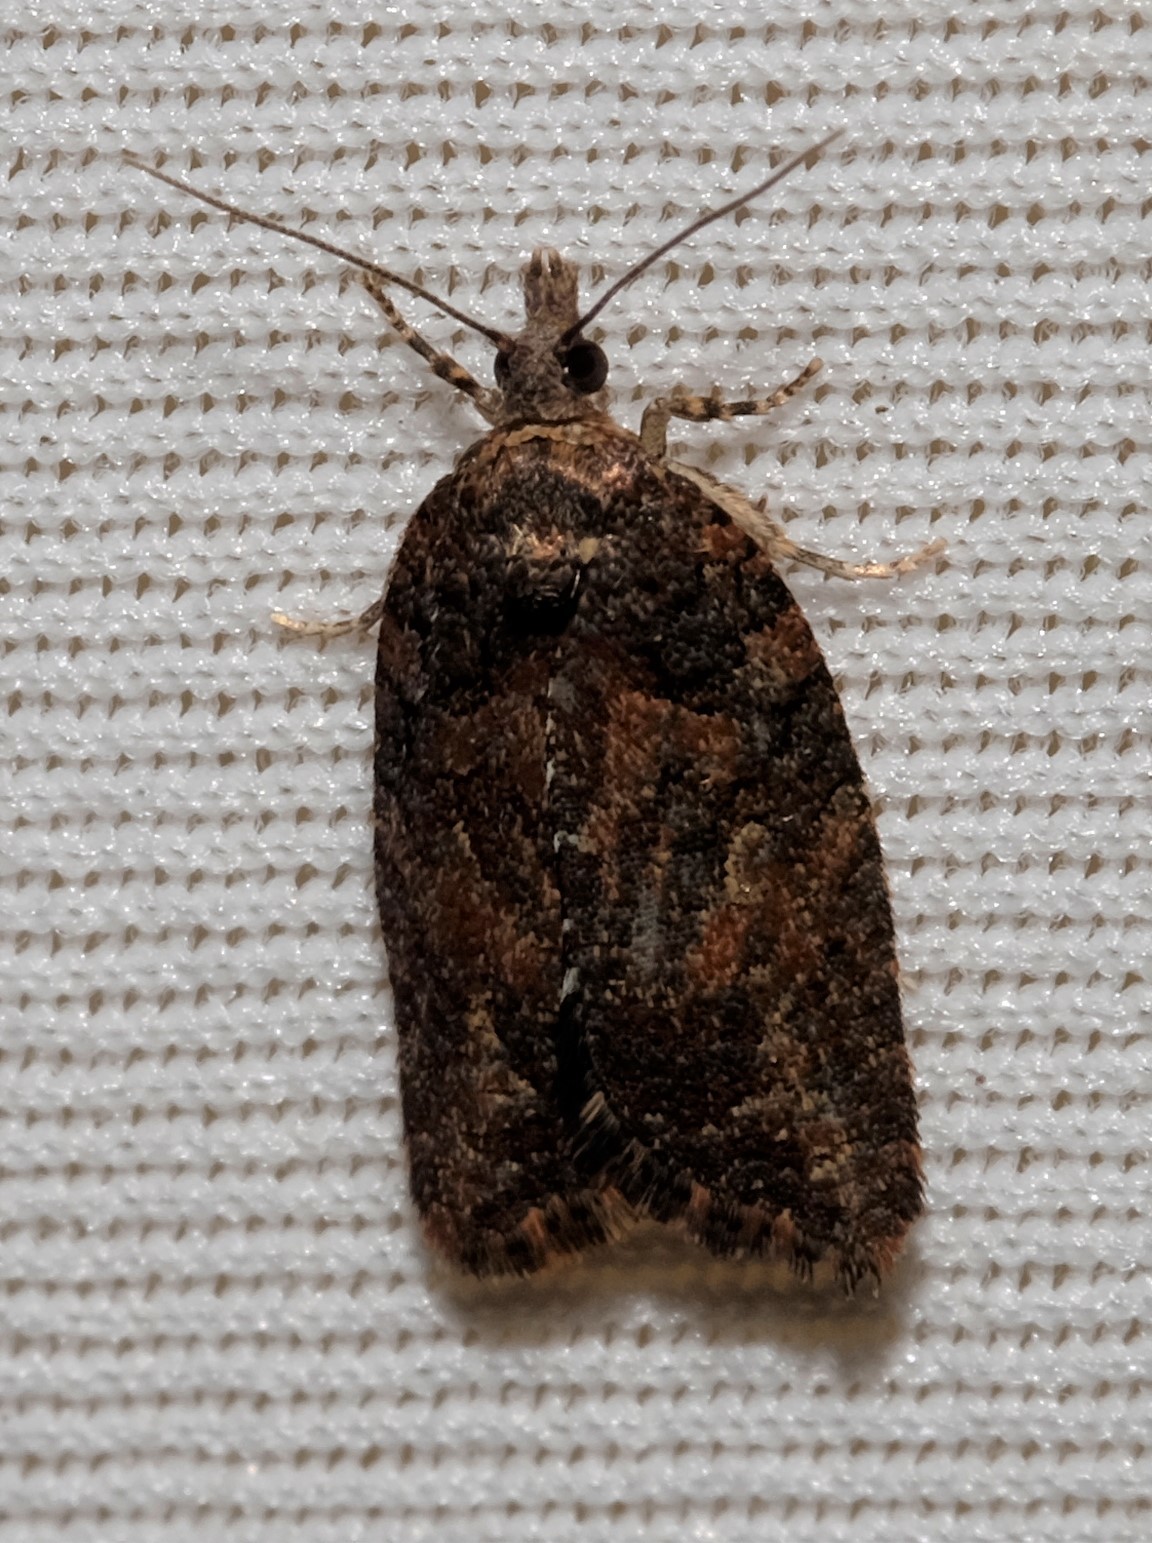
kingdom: Animalia
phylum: Arthropoda
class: Insecta
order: Lepidoptera
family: Tortricidae
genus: Acropolitis
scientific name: Acropolitis excelsa
